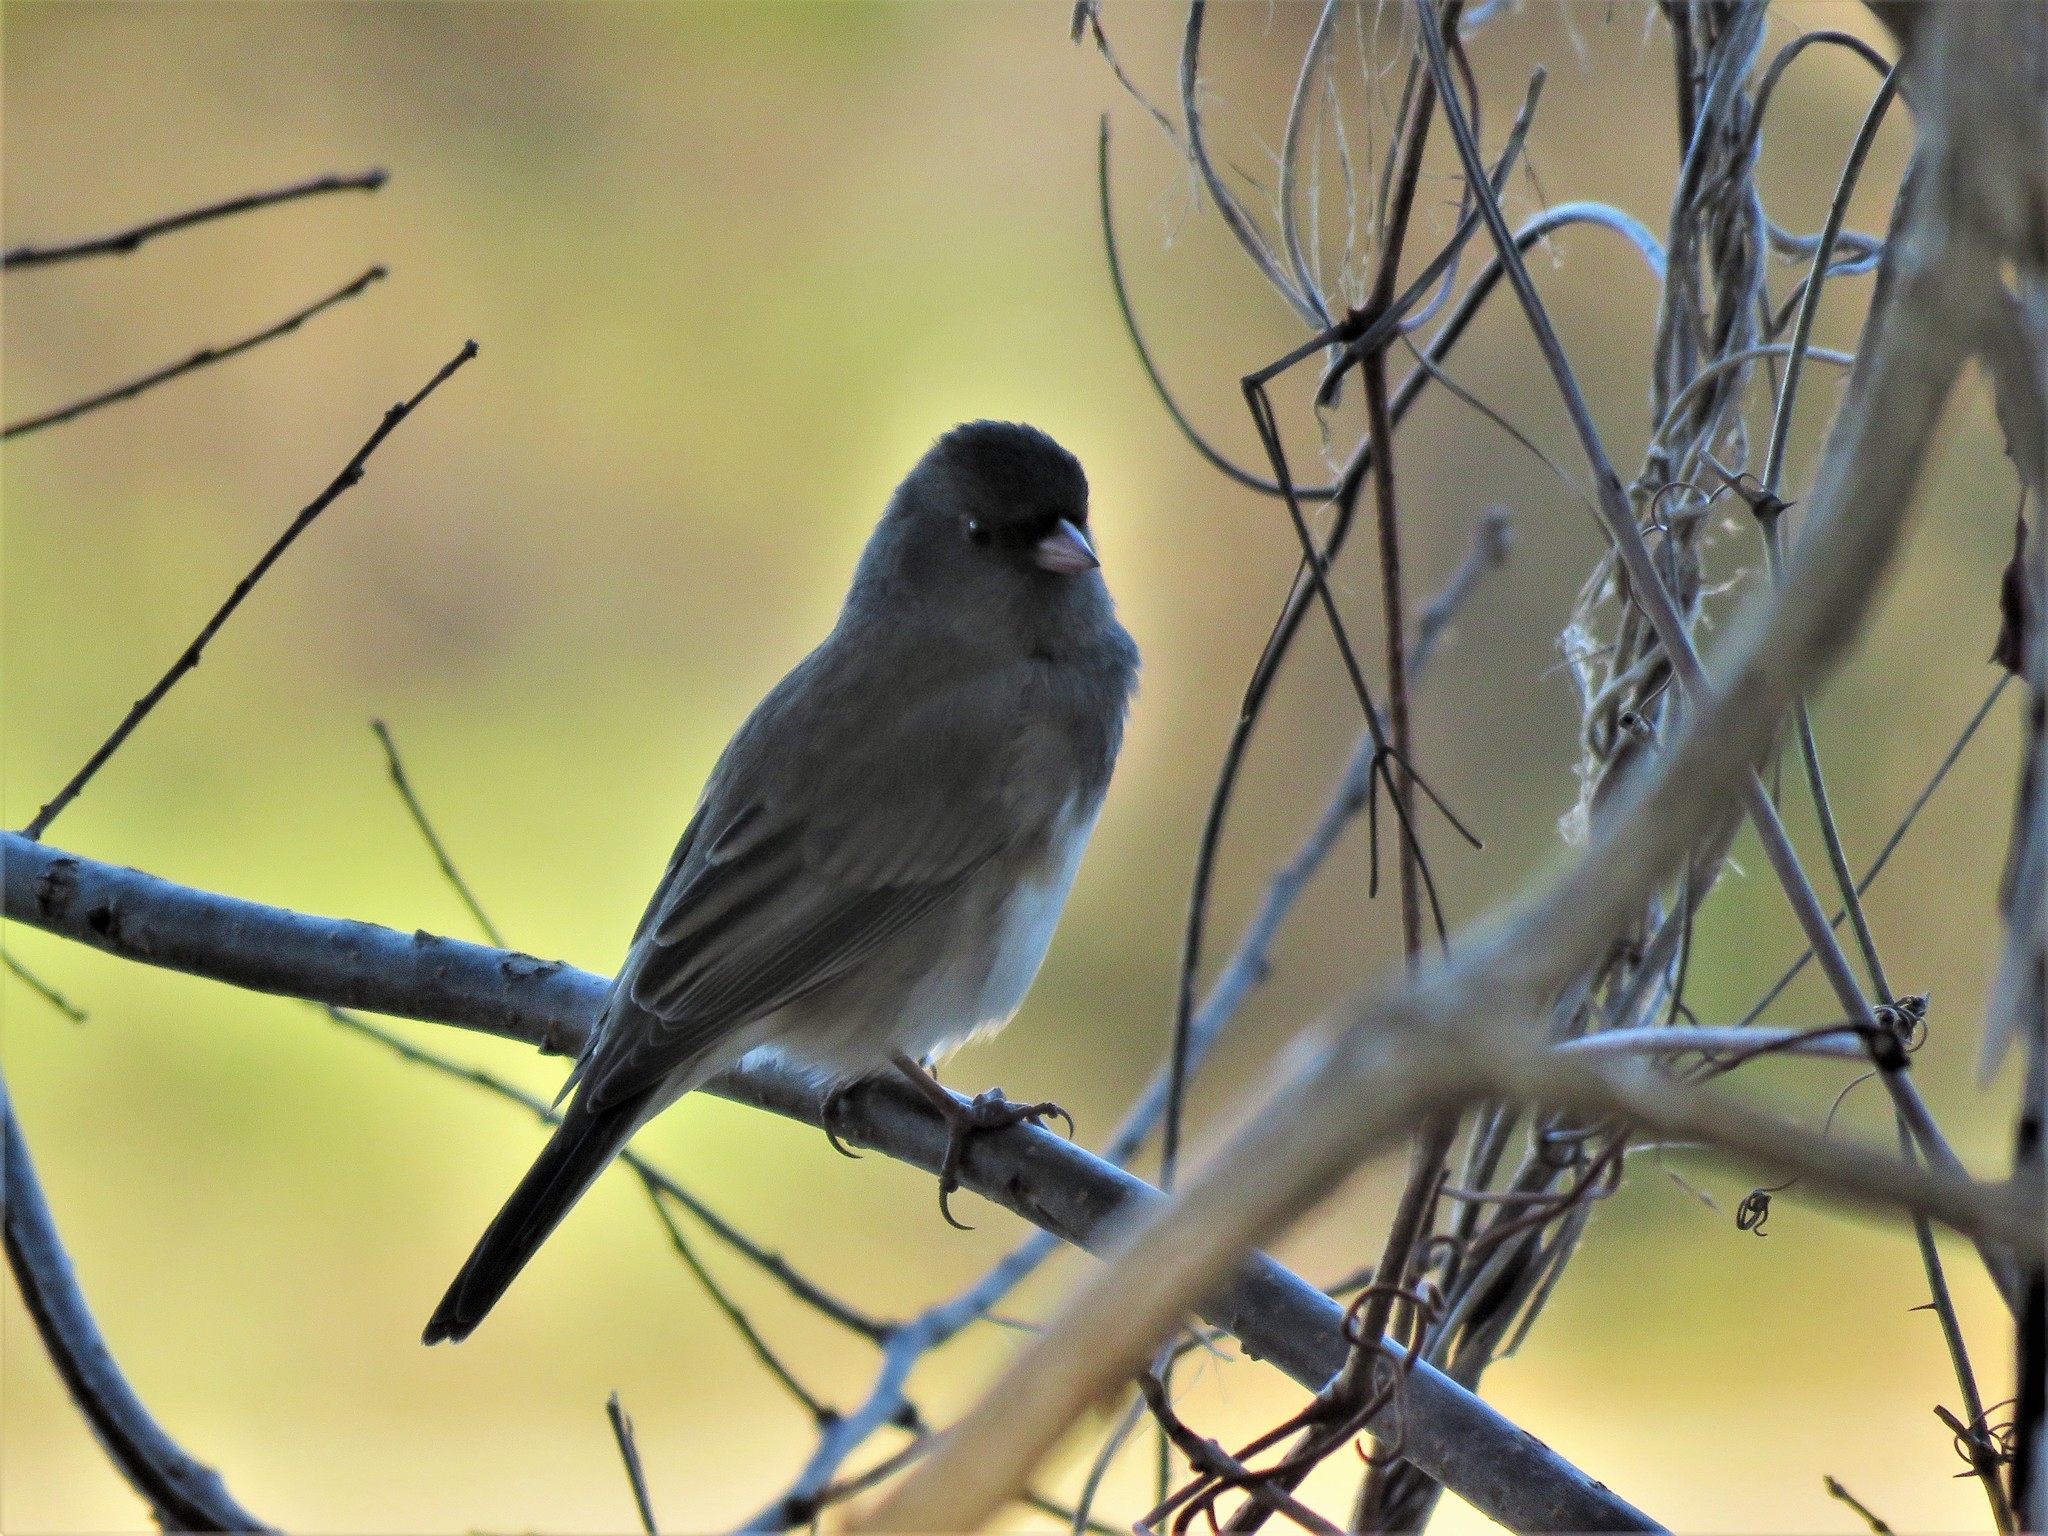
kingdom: Animalia
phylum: Chordata
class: Aves
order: Passeriformes
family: Passerellidae
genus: Junco
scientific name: Junco hyemalis
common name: Dark-eyed junco
